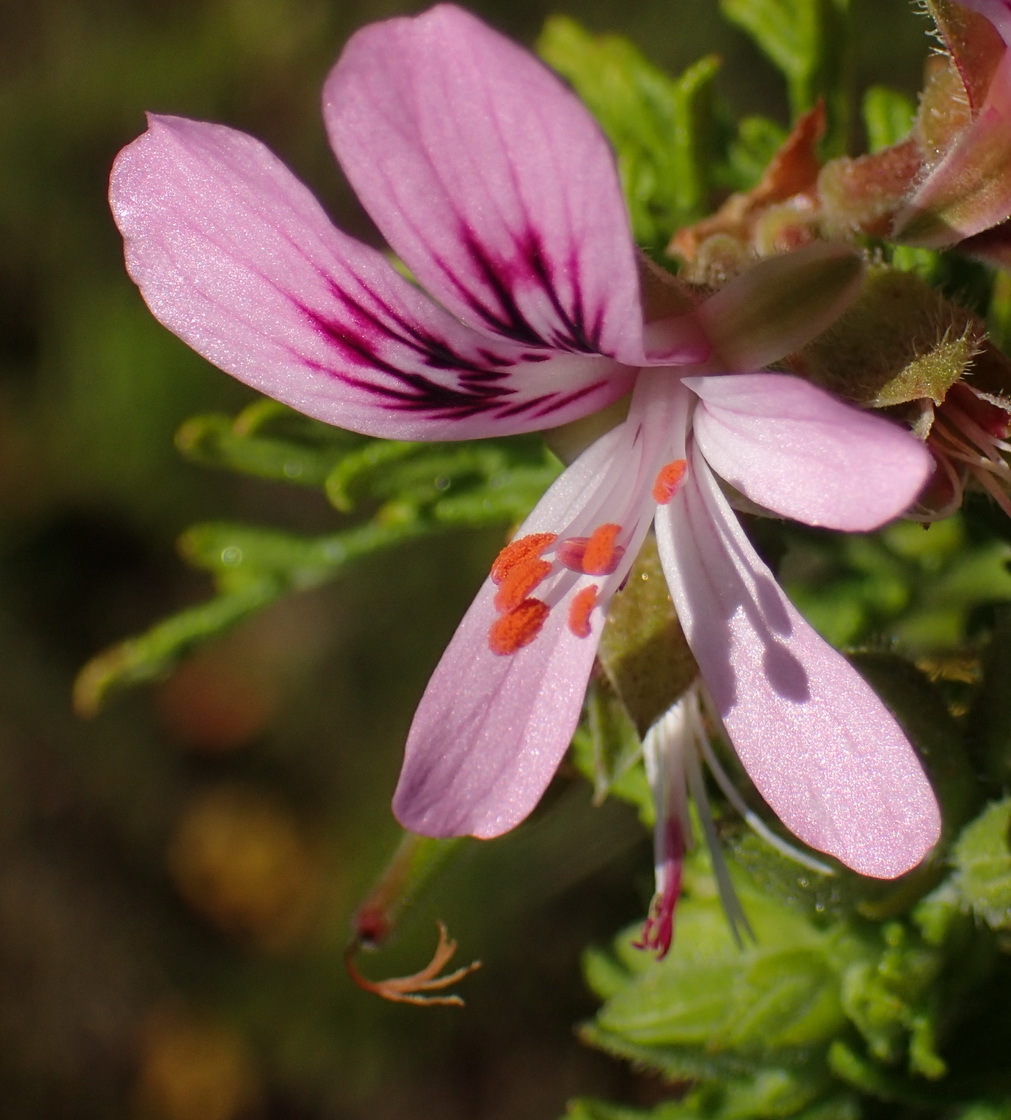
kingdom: Plantae
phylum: Tracheophyta
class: Magnoliopsida
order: Geraniales
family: Geraniaceae
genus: Pelargonium
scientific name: Pelargonium radens
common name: Rasp-leaf pelargonium
